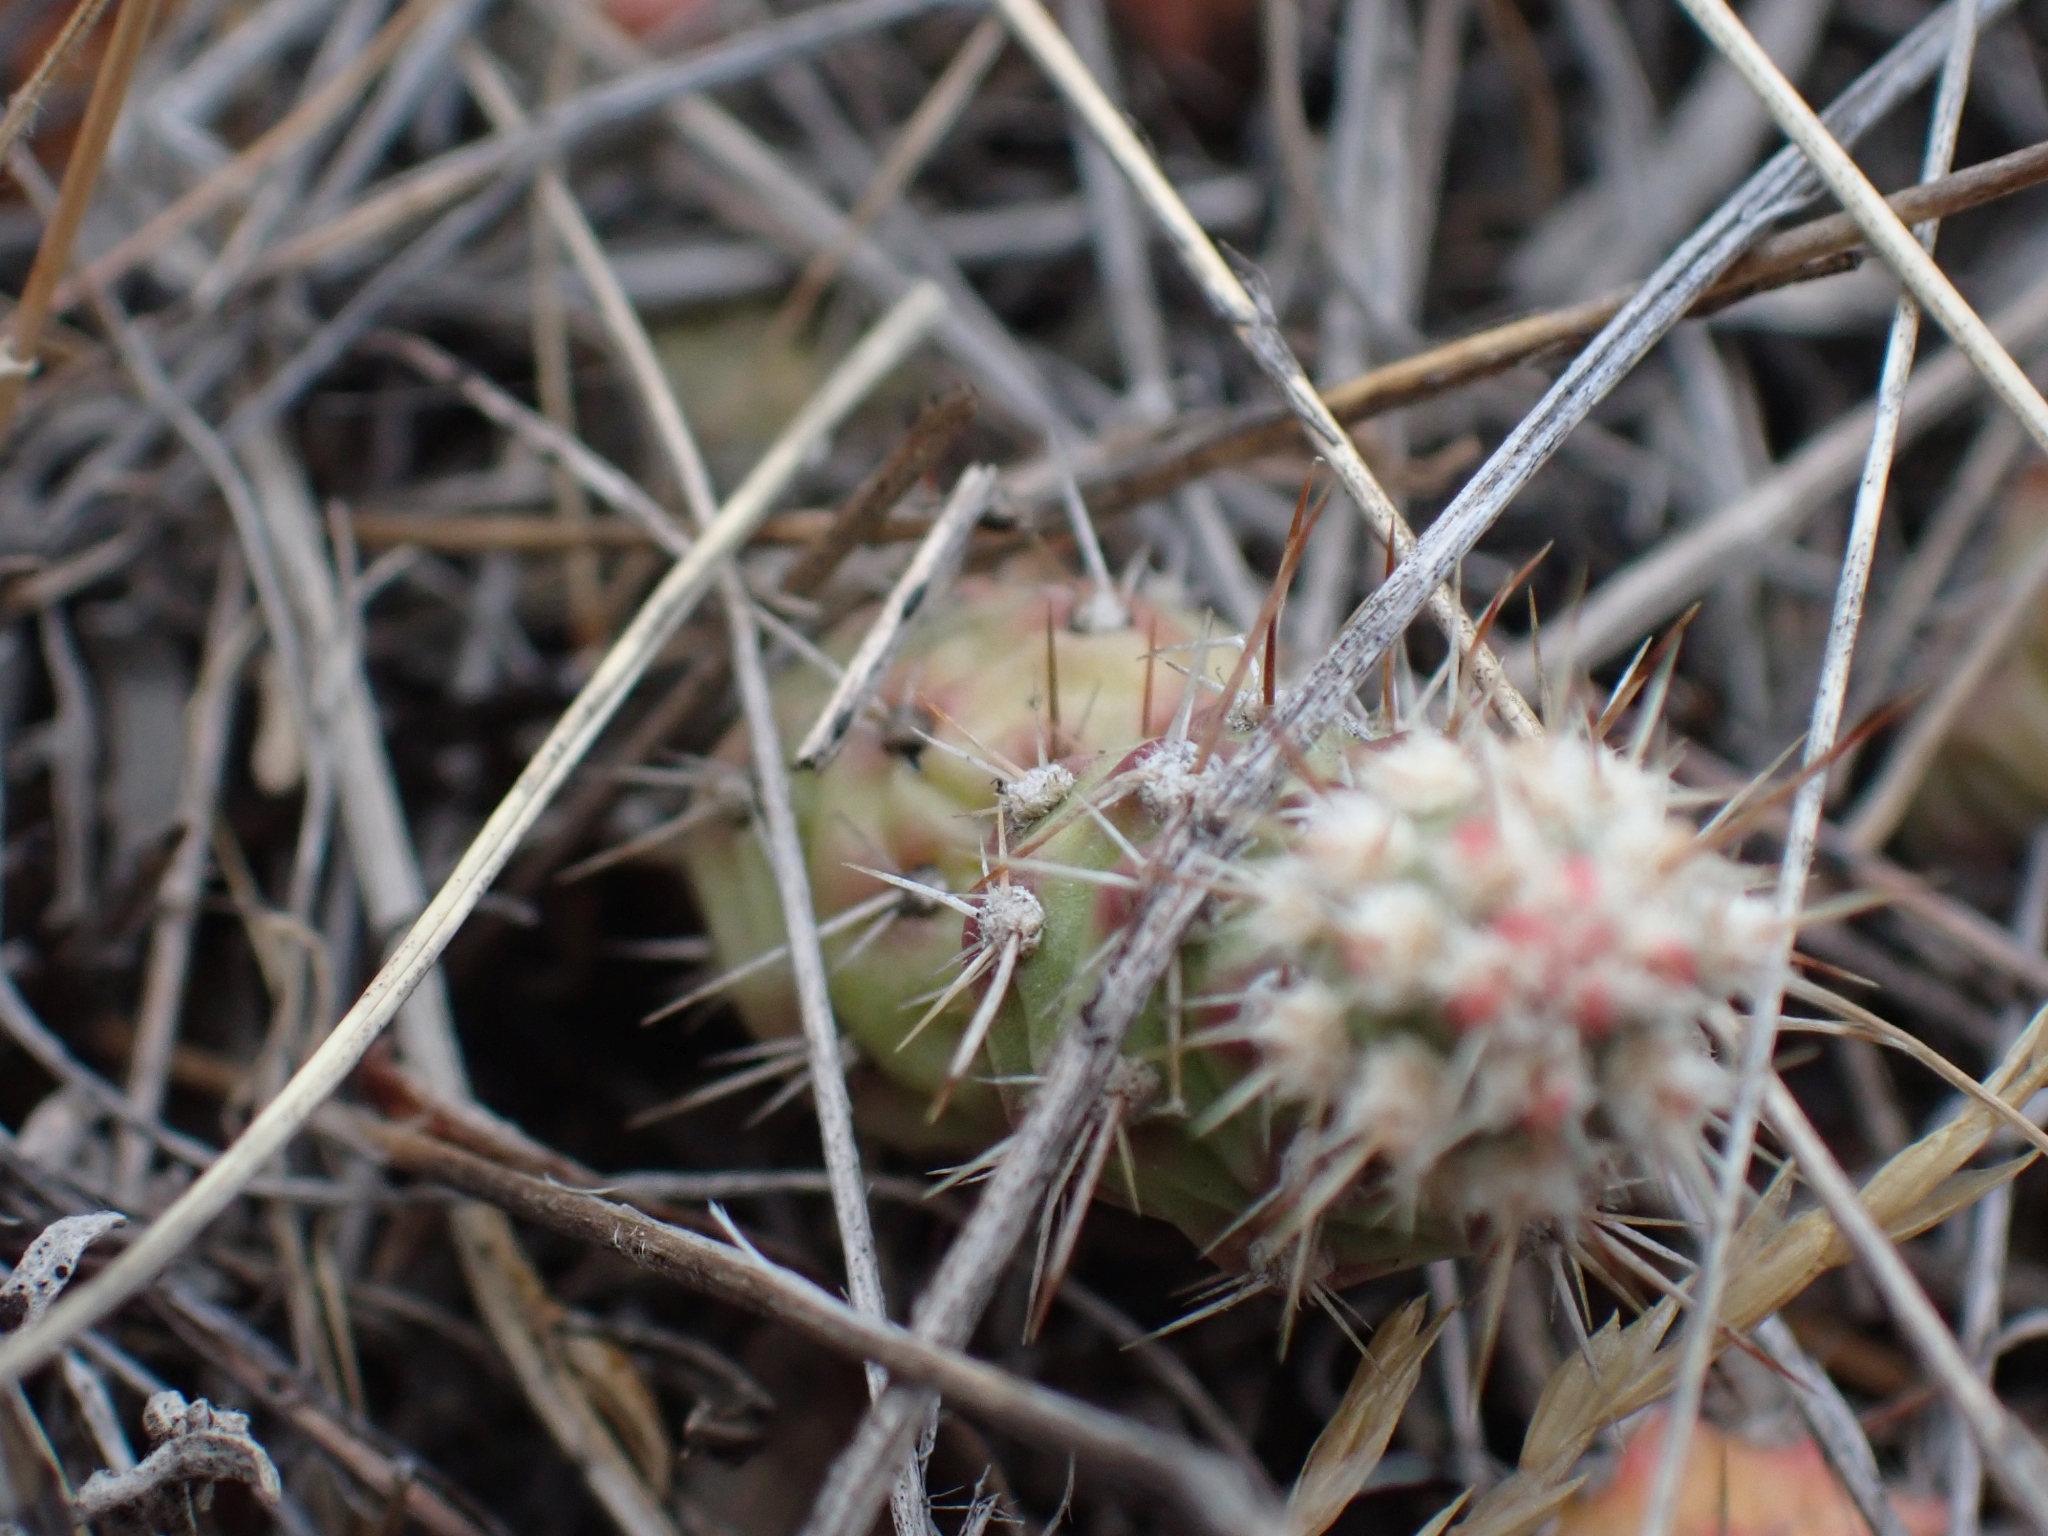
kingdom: Plantae
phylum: Tracheophyta
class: Magnoliopsida
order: Caryophyllales
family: Cactaceae
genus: Opuntia
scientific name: Opuntia fragilis
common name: Brittle cactus
